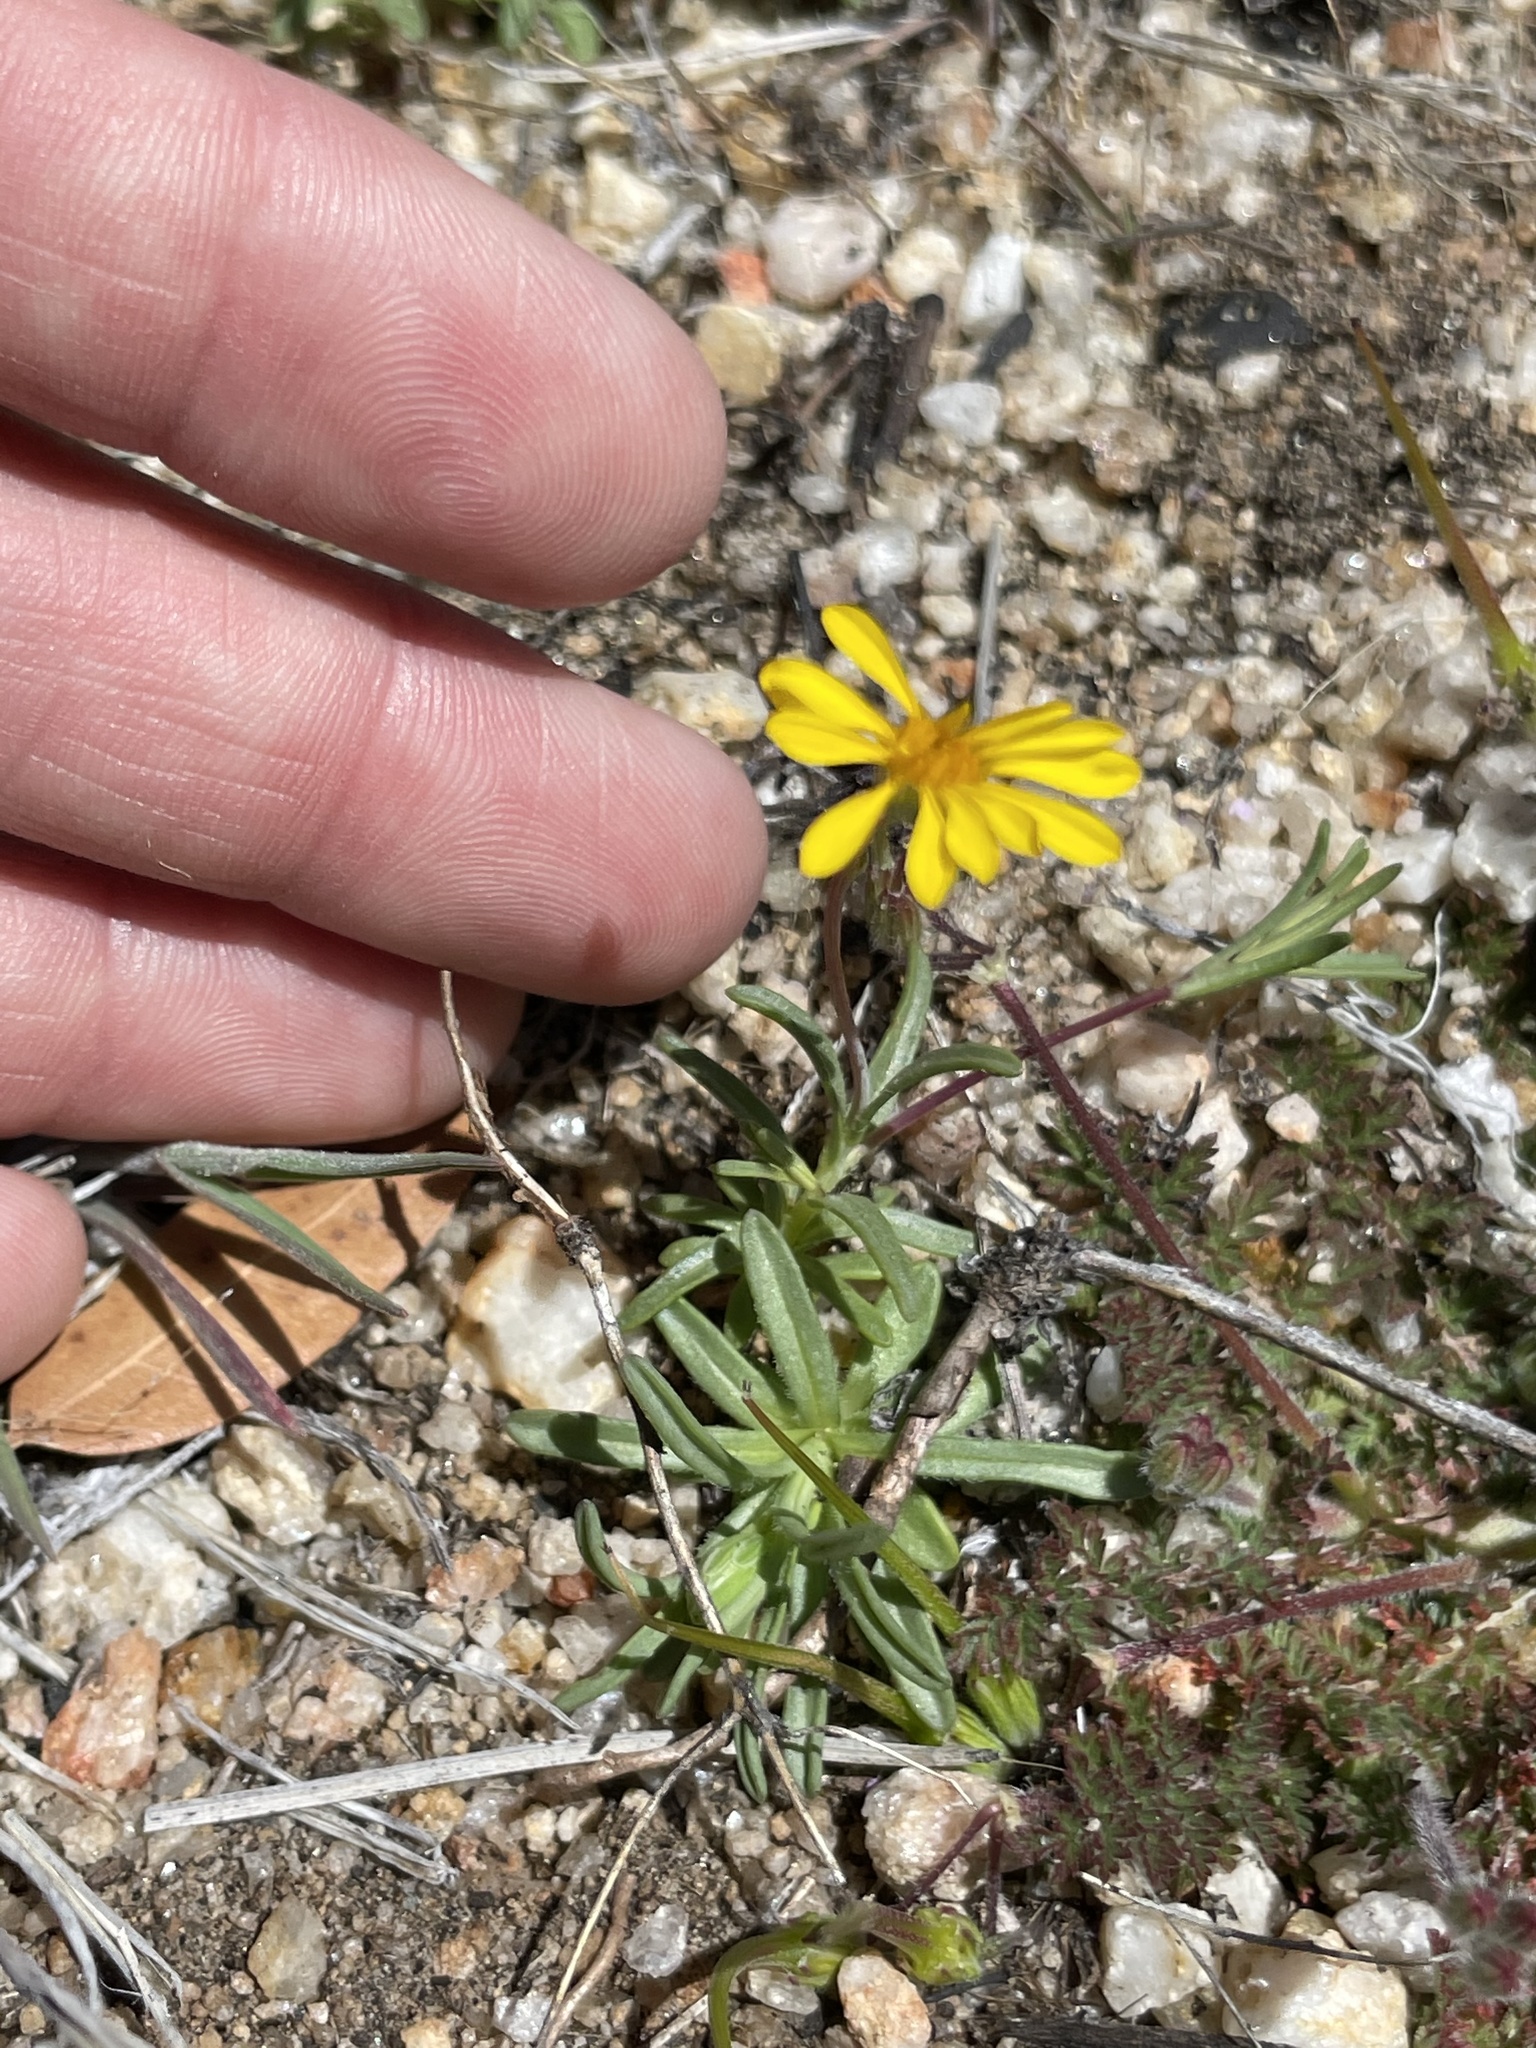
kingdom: Plantae
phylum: Tracheophyta
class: Magnoliopsida
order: Asterales
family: Asteraceae
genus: Pentachaeta
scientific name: Pentachaeta aurea
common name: Golden-ray pentachaeta
